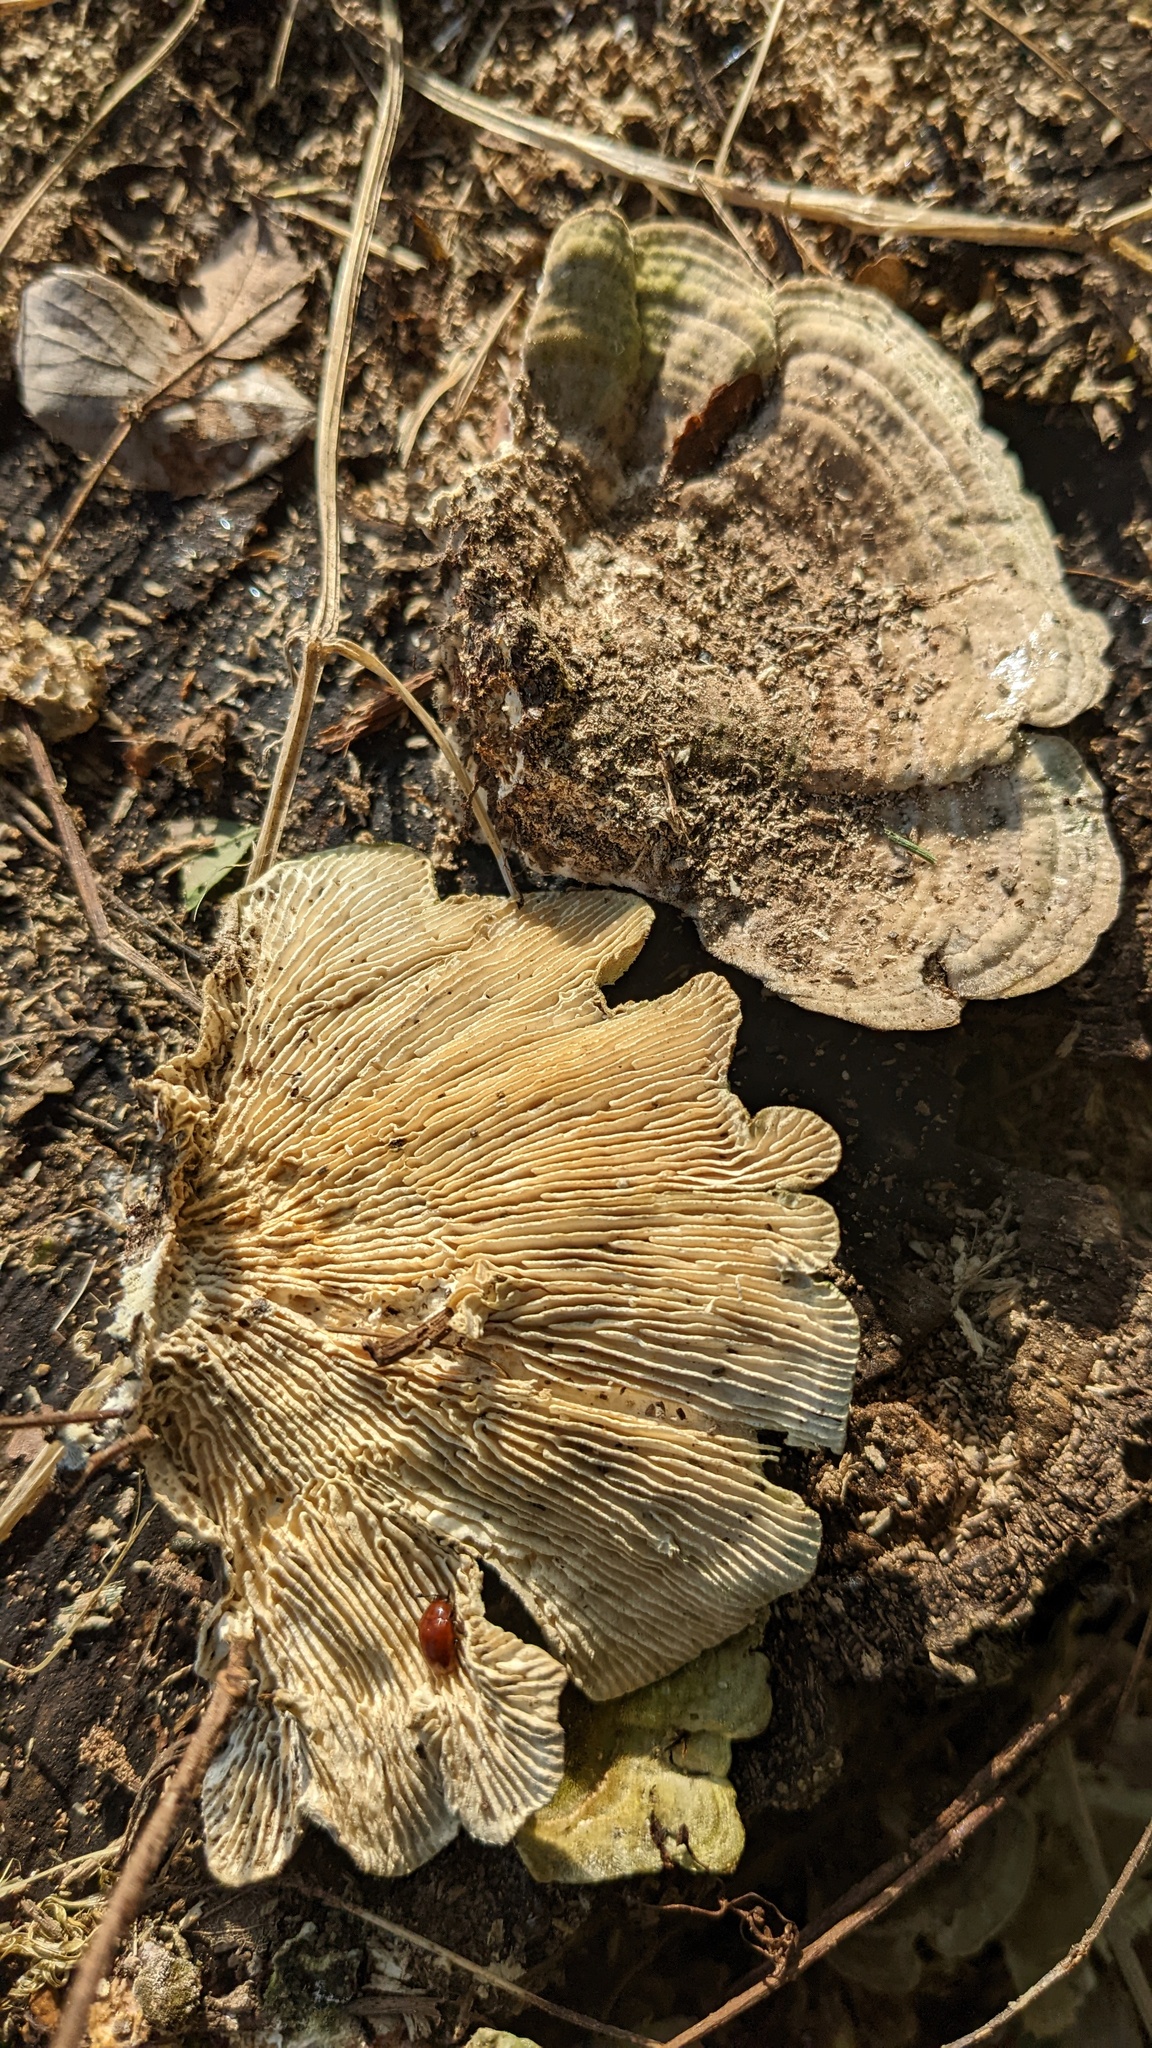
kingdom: Fungi
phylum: Basidiomycota
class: Agaricomycetes
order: Polyporales
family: Polyporaceae
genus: Lenzites
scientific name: Lenzites betulinus
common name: Birch mazegill
